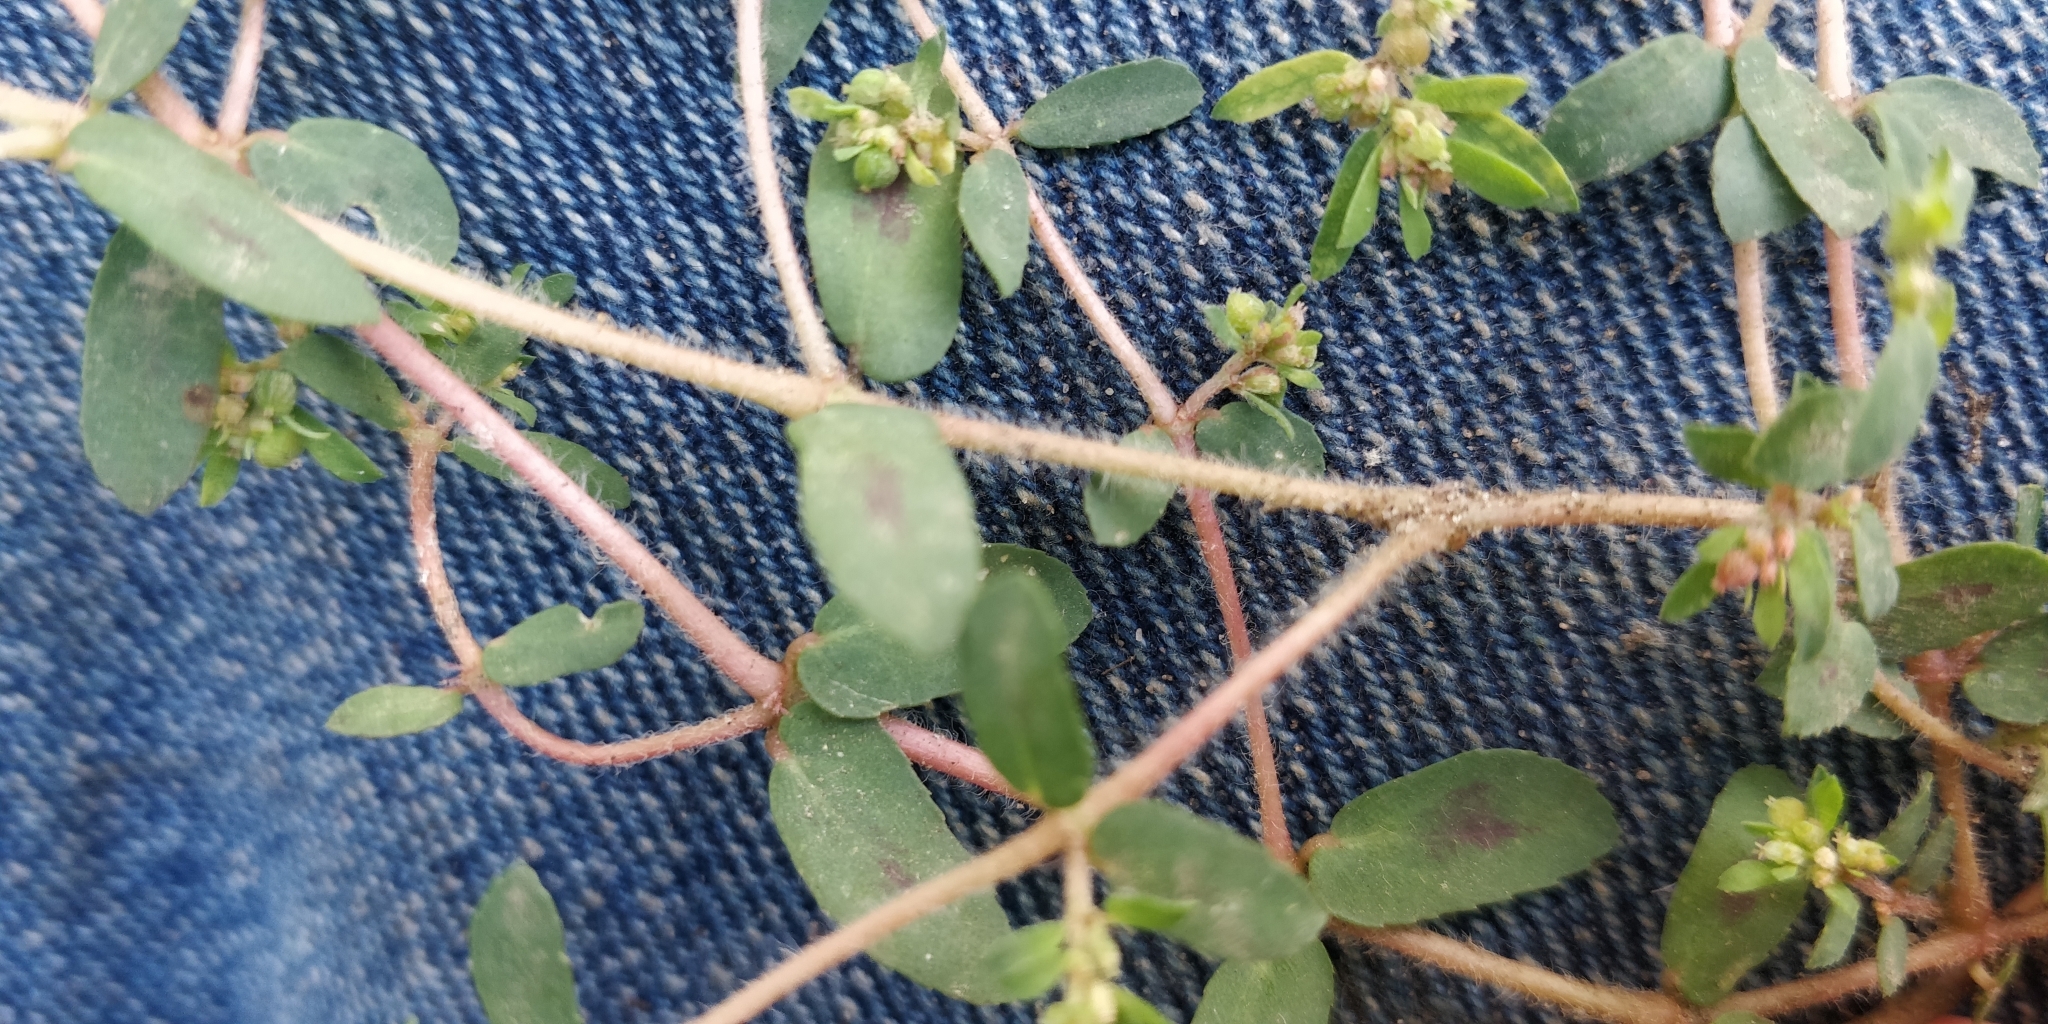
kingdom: Plantae
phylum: Tracheophyta
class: Magnoliopsida
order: Malpighiales
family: Euphorbiaceae
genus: Euphorbia
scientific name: Euphorbia maculata
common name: Spotted spurge
